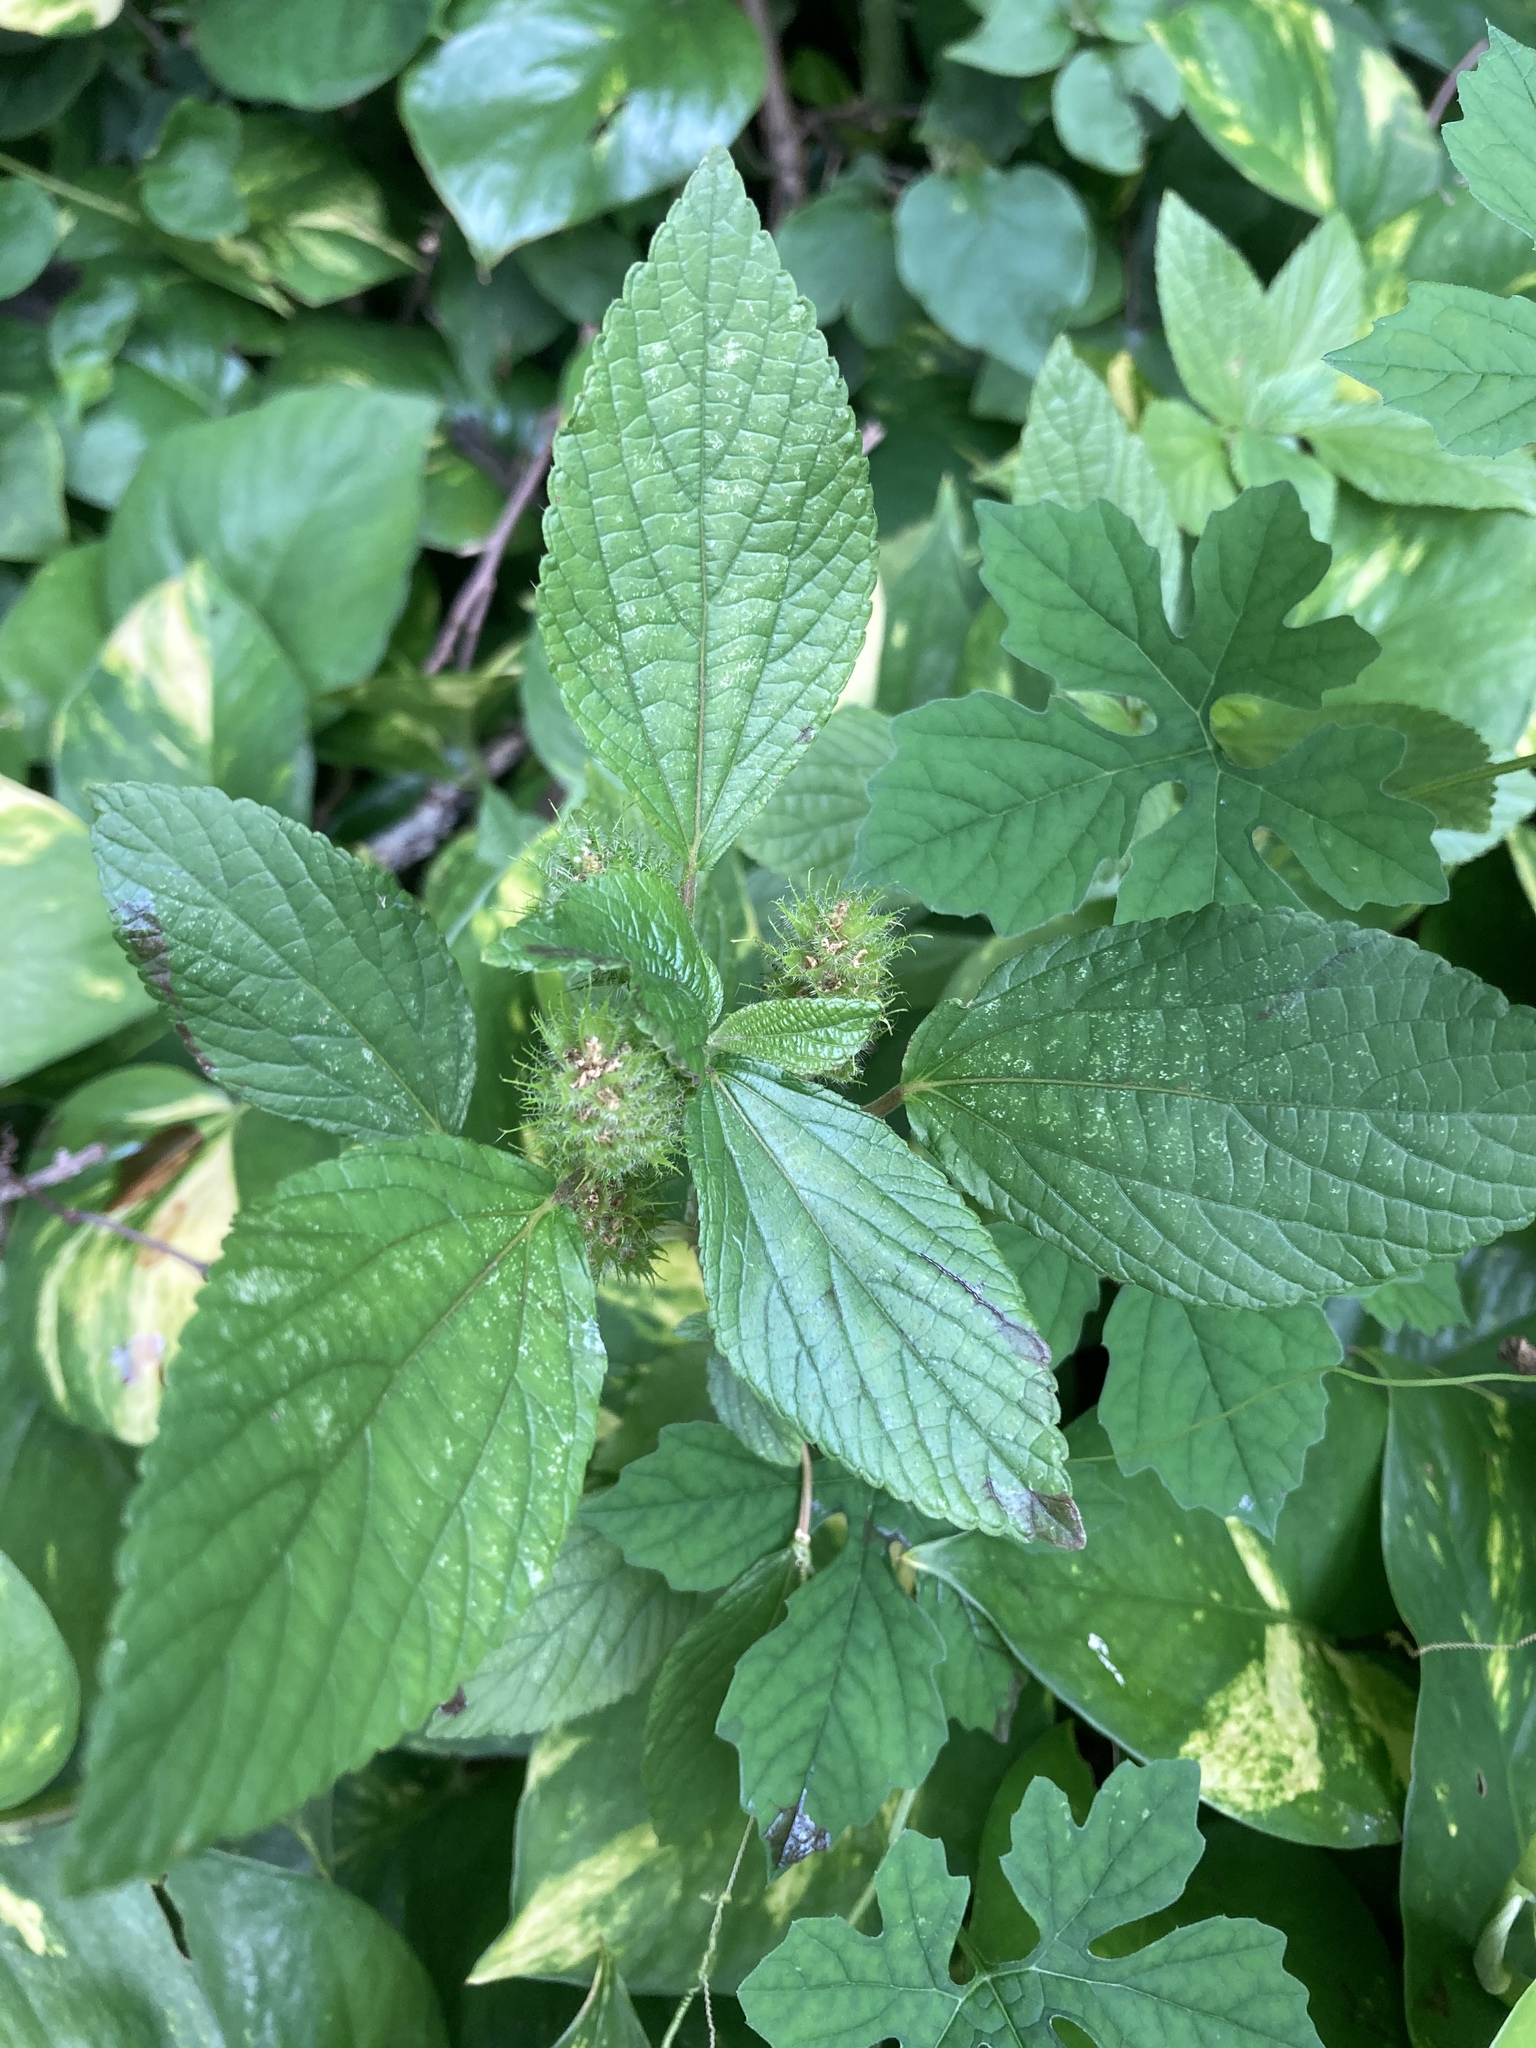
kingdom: Plantae
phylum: Tracheophyta
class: Magnoliopsida
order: Malpighiales
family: Euphorbiaceae
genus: Acalypha
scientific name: Acalypha arvensis
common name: Field copperleaf
